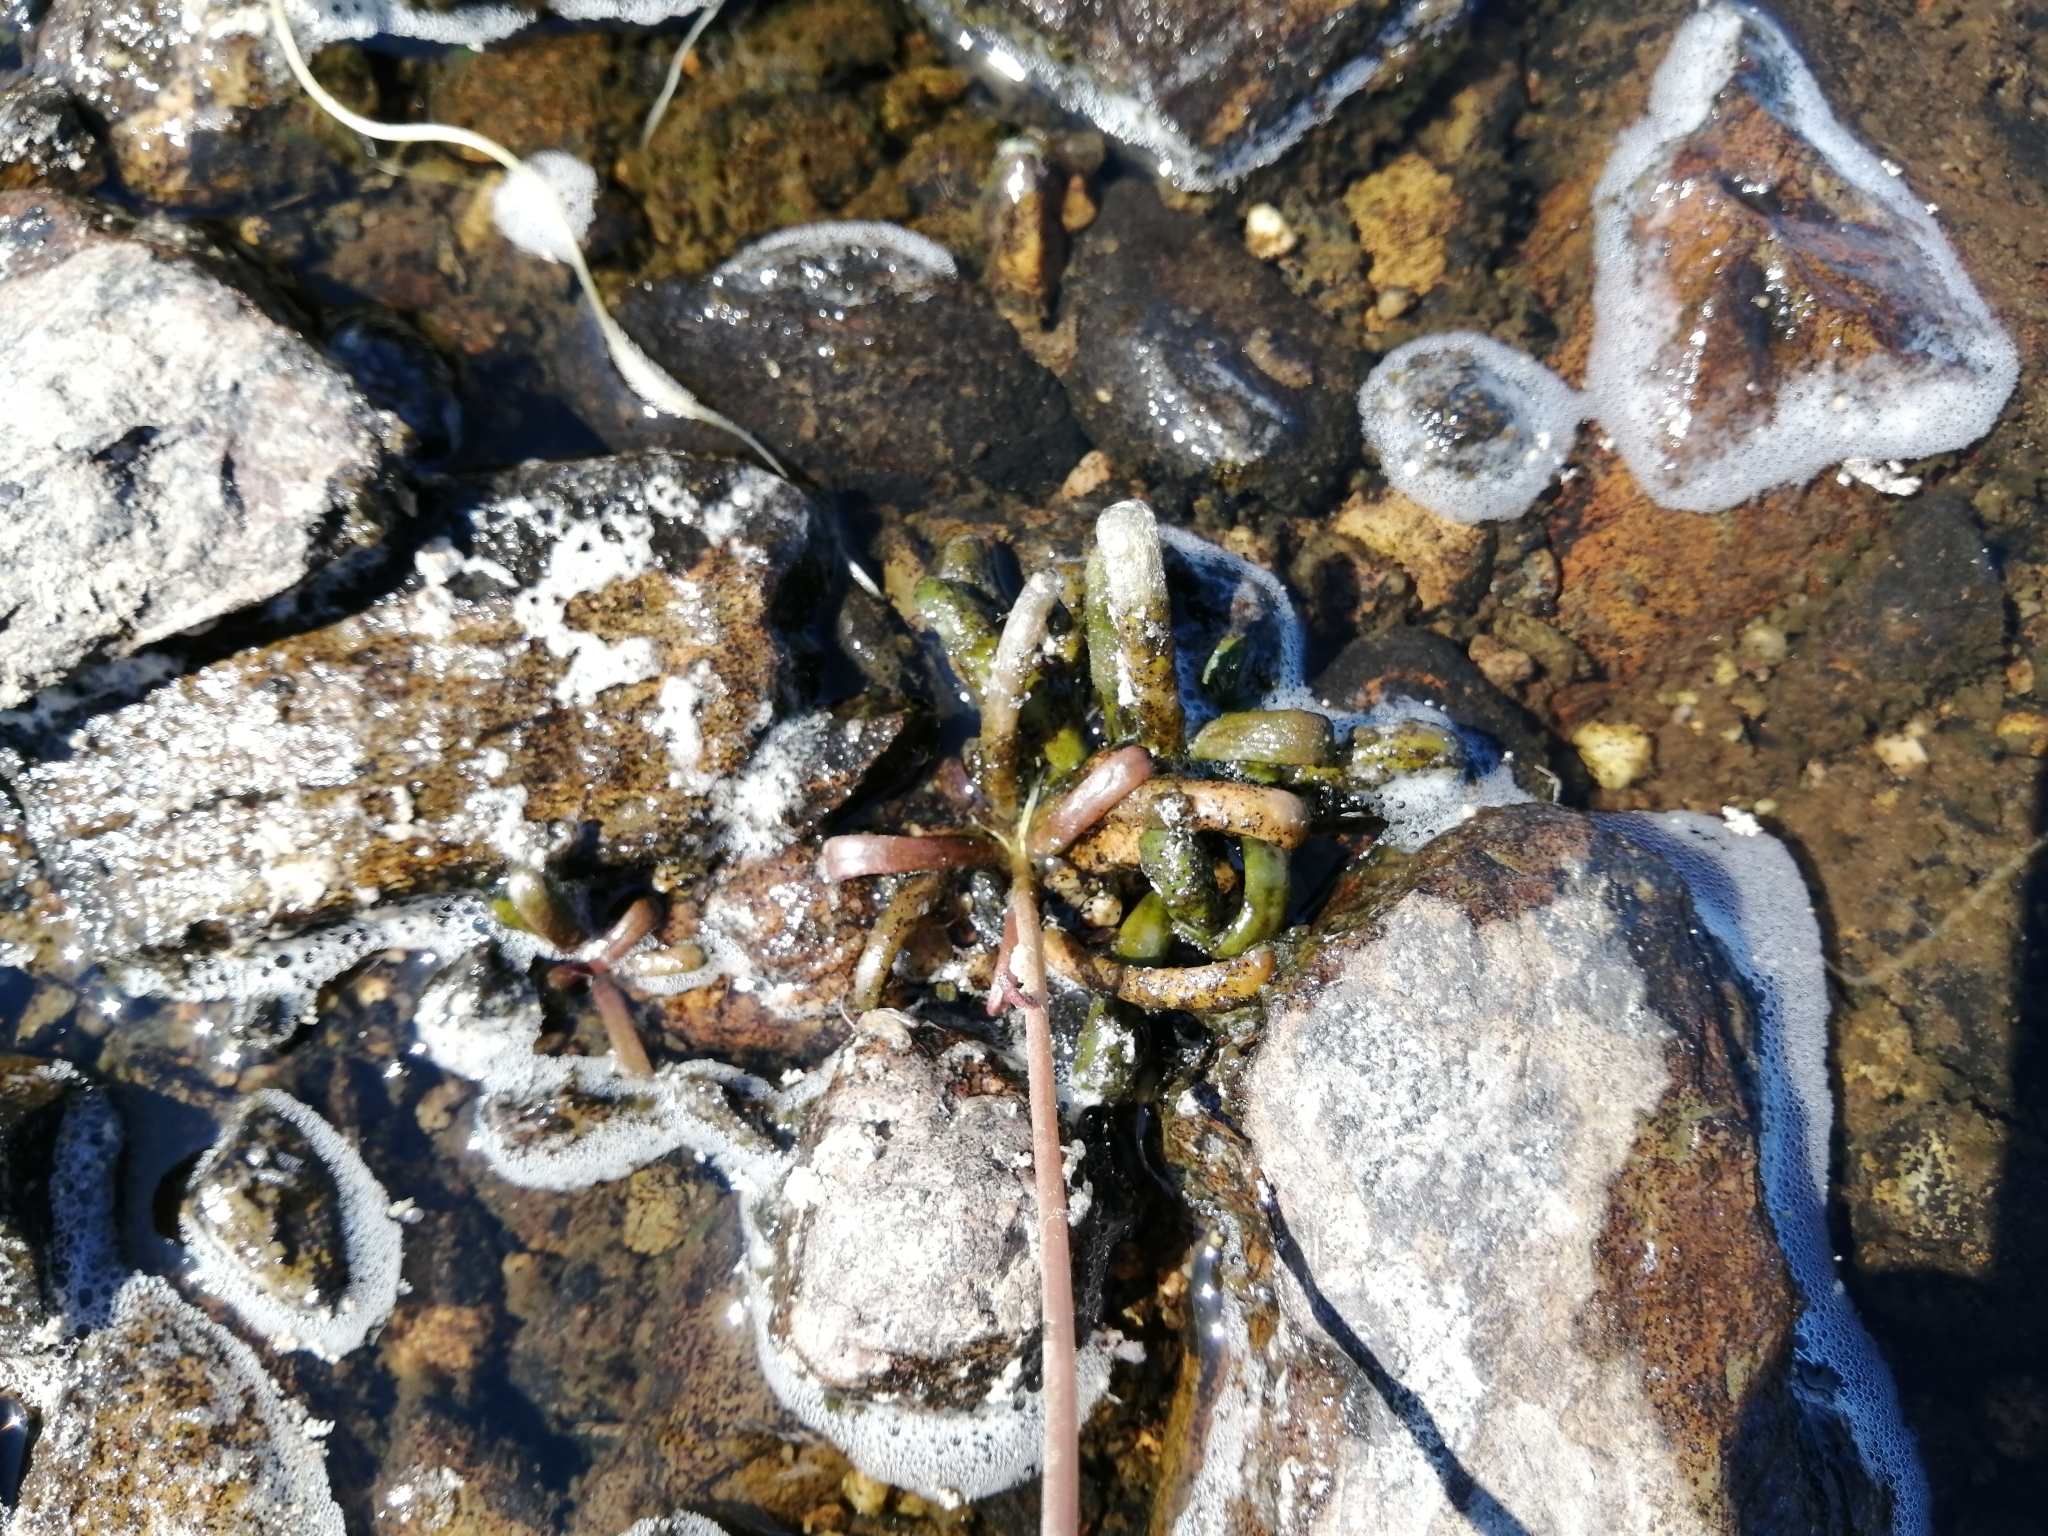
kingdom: Plantae
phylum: Tracheophyta
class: Magnoliopsida
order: Asterales
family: Campanulaceae
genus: Lobelia
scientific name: Lobelia dortmanna
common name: Water lobelia
